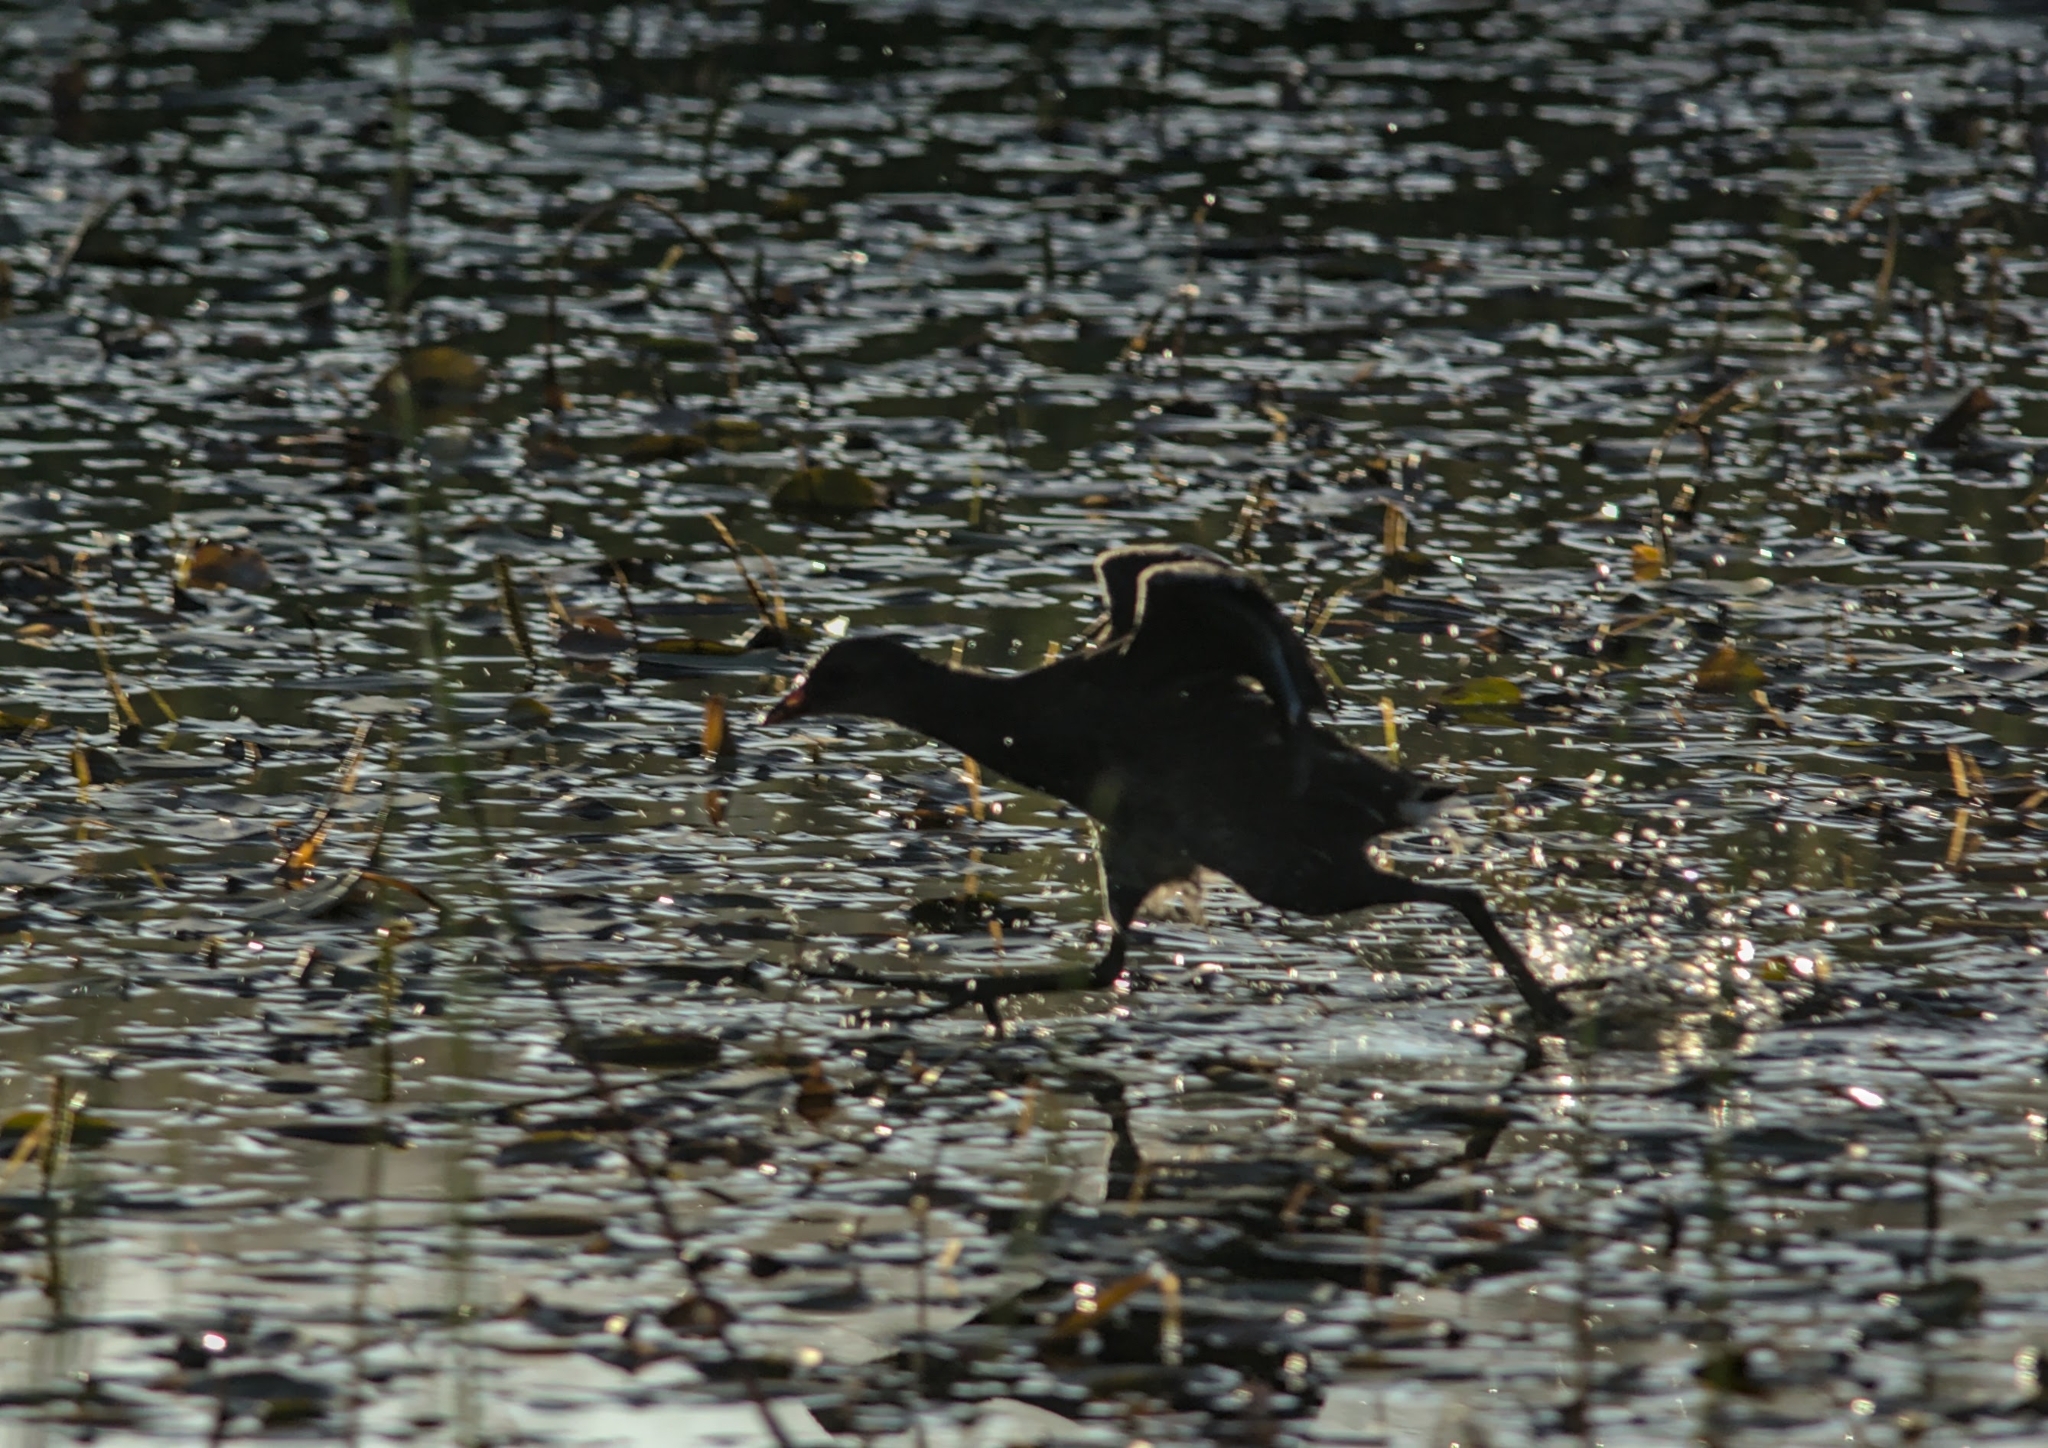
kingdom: Animalia
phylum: Chordata
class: Aves
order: Gruiformes
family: Rallidae
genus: Gallinula
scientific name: Gallinula chloropus
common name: Common moorhen
